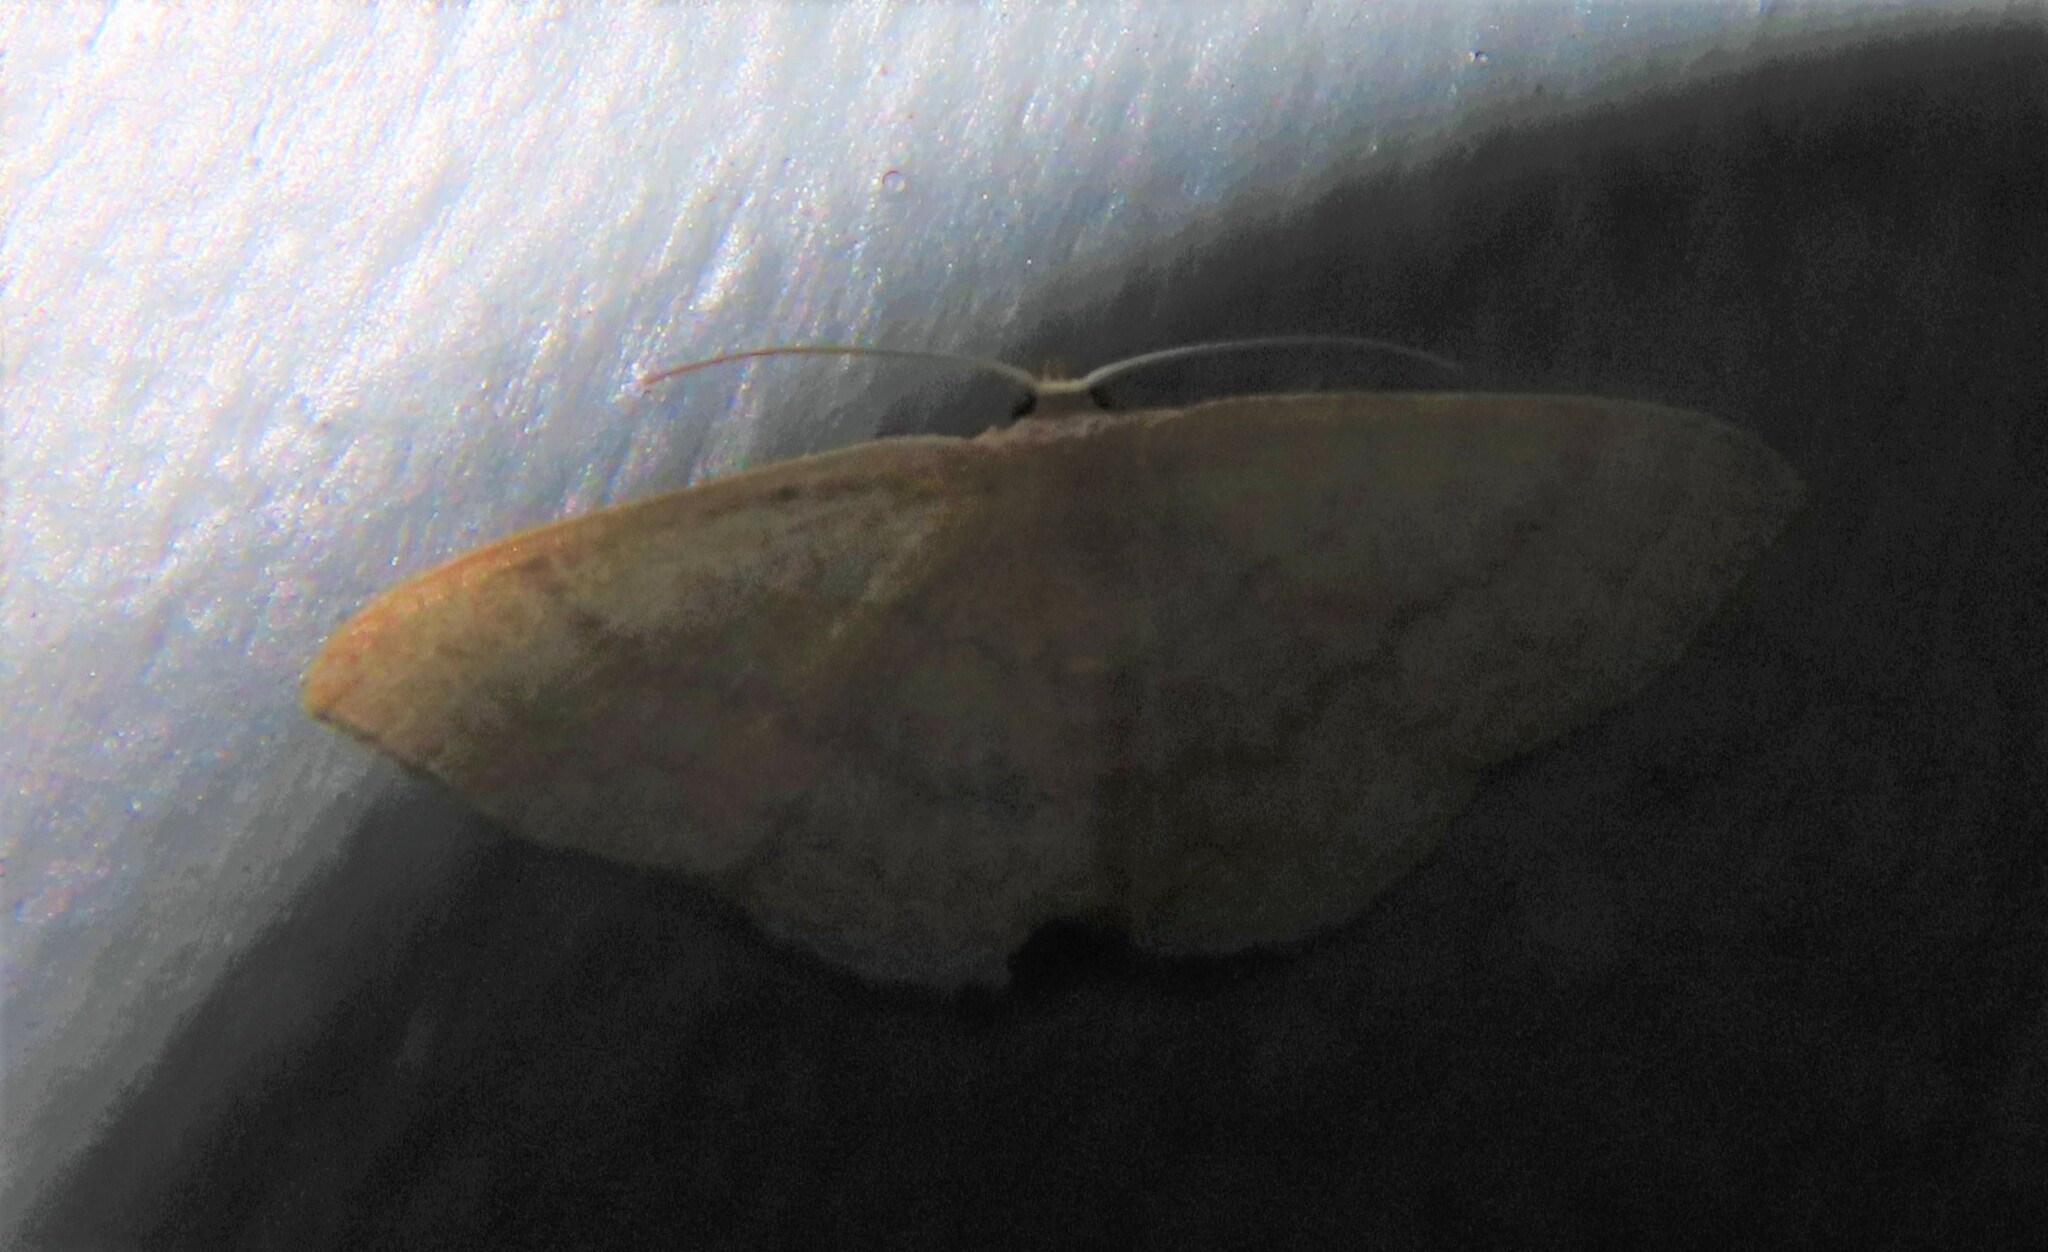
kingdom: Animalia
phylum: Arthropoda
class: Insecta
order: Lepidoptera
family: Geometridae
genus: Pleuroprucha
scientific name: Pleuroprucha insulsaria
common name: Common tan wave
